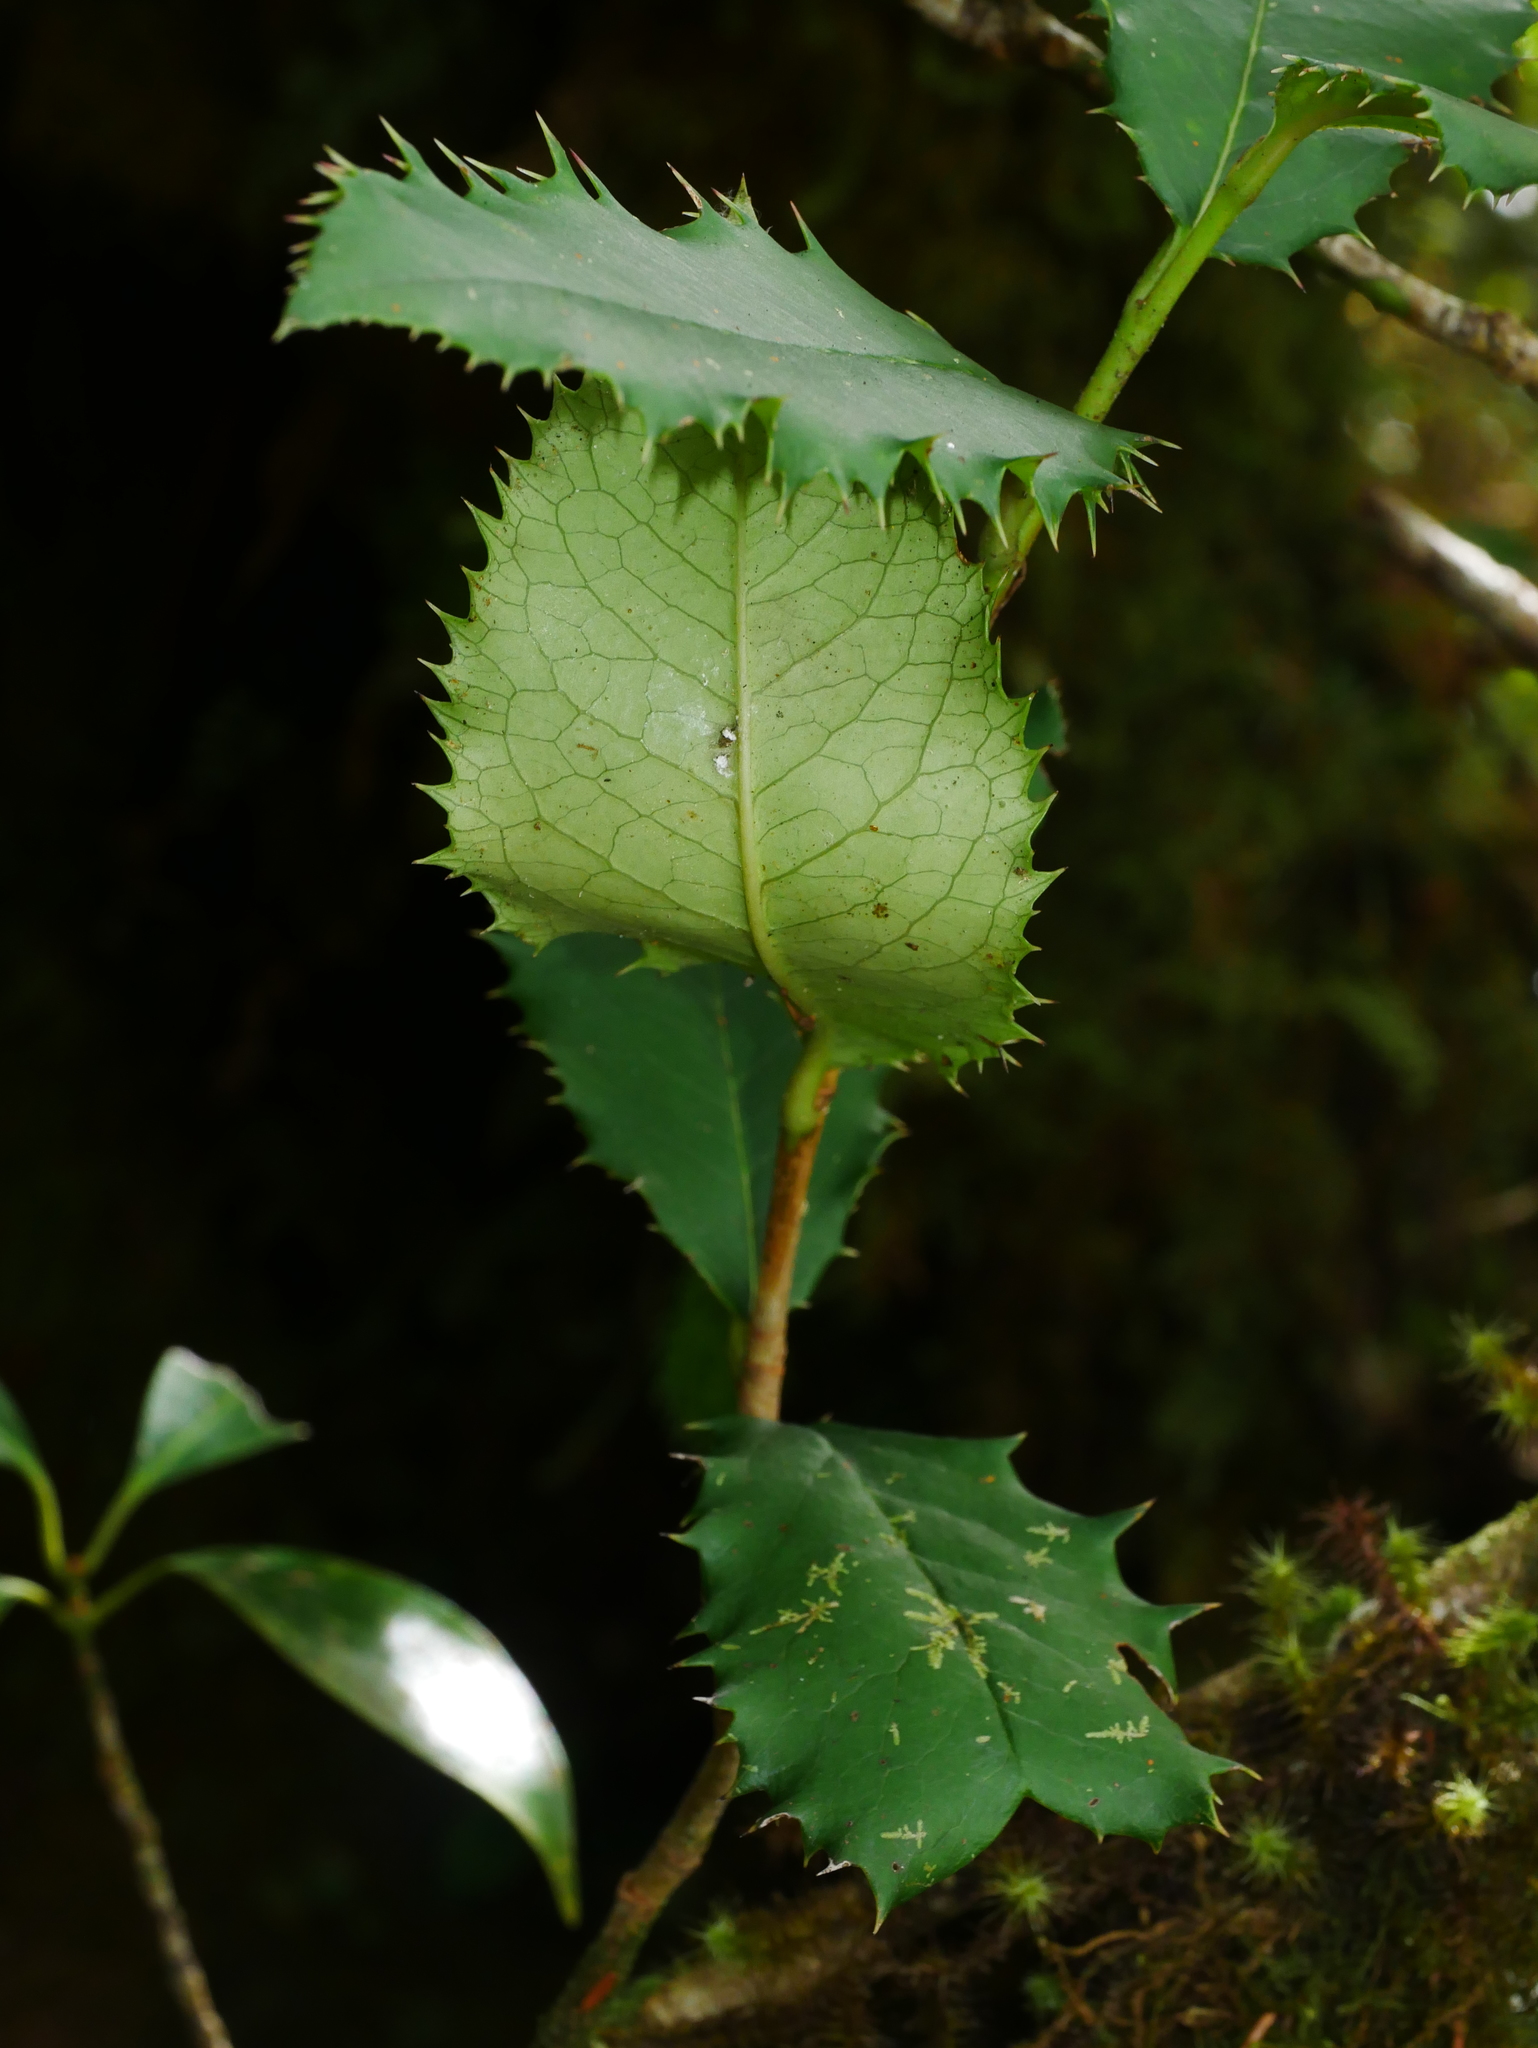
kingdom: Plantae
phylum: Tracheophyta
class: Magnoliopsida
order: Rosales
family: Rosaceae
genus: Photinia
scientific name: Photinia serratifolia
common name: Taiwanese photinia
